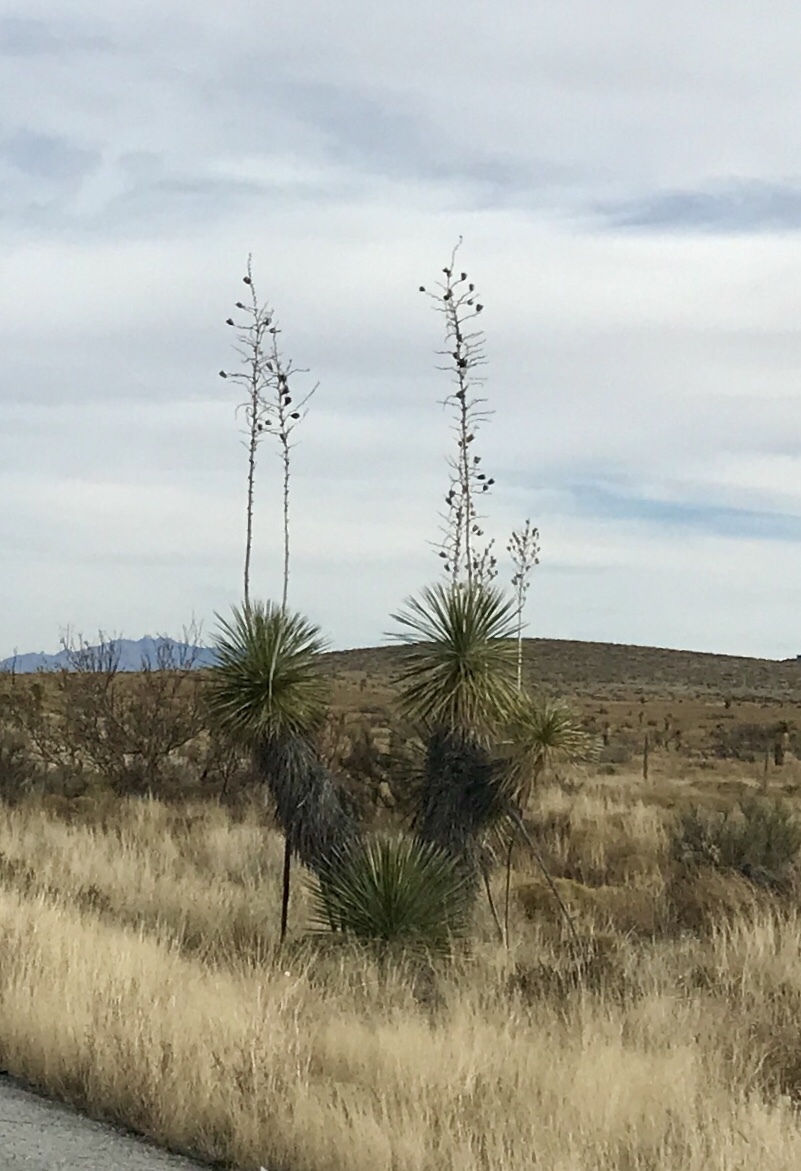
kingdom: Plantae
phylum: Tracheophyta
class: Liliopsida
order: Asparagales
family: Asparagaceae
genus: Yucca
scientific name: Yucca elata
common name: Palmella
